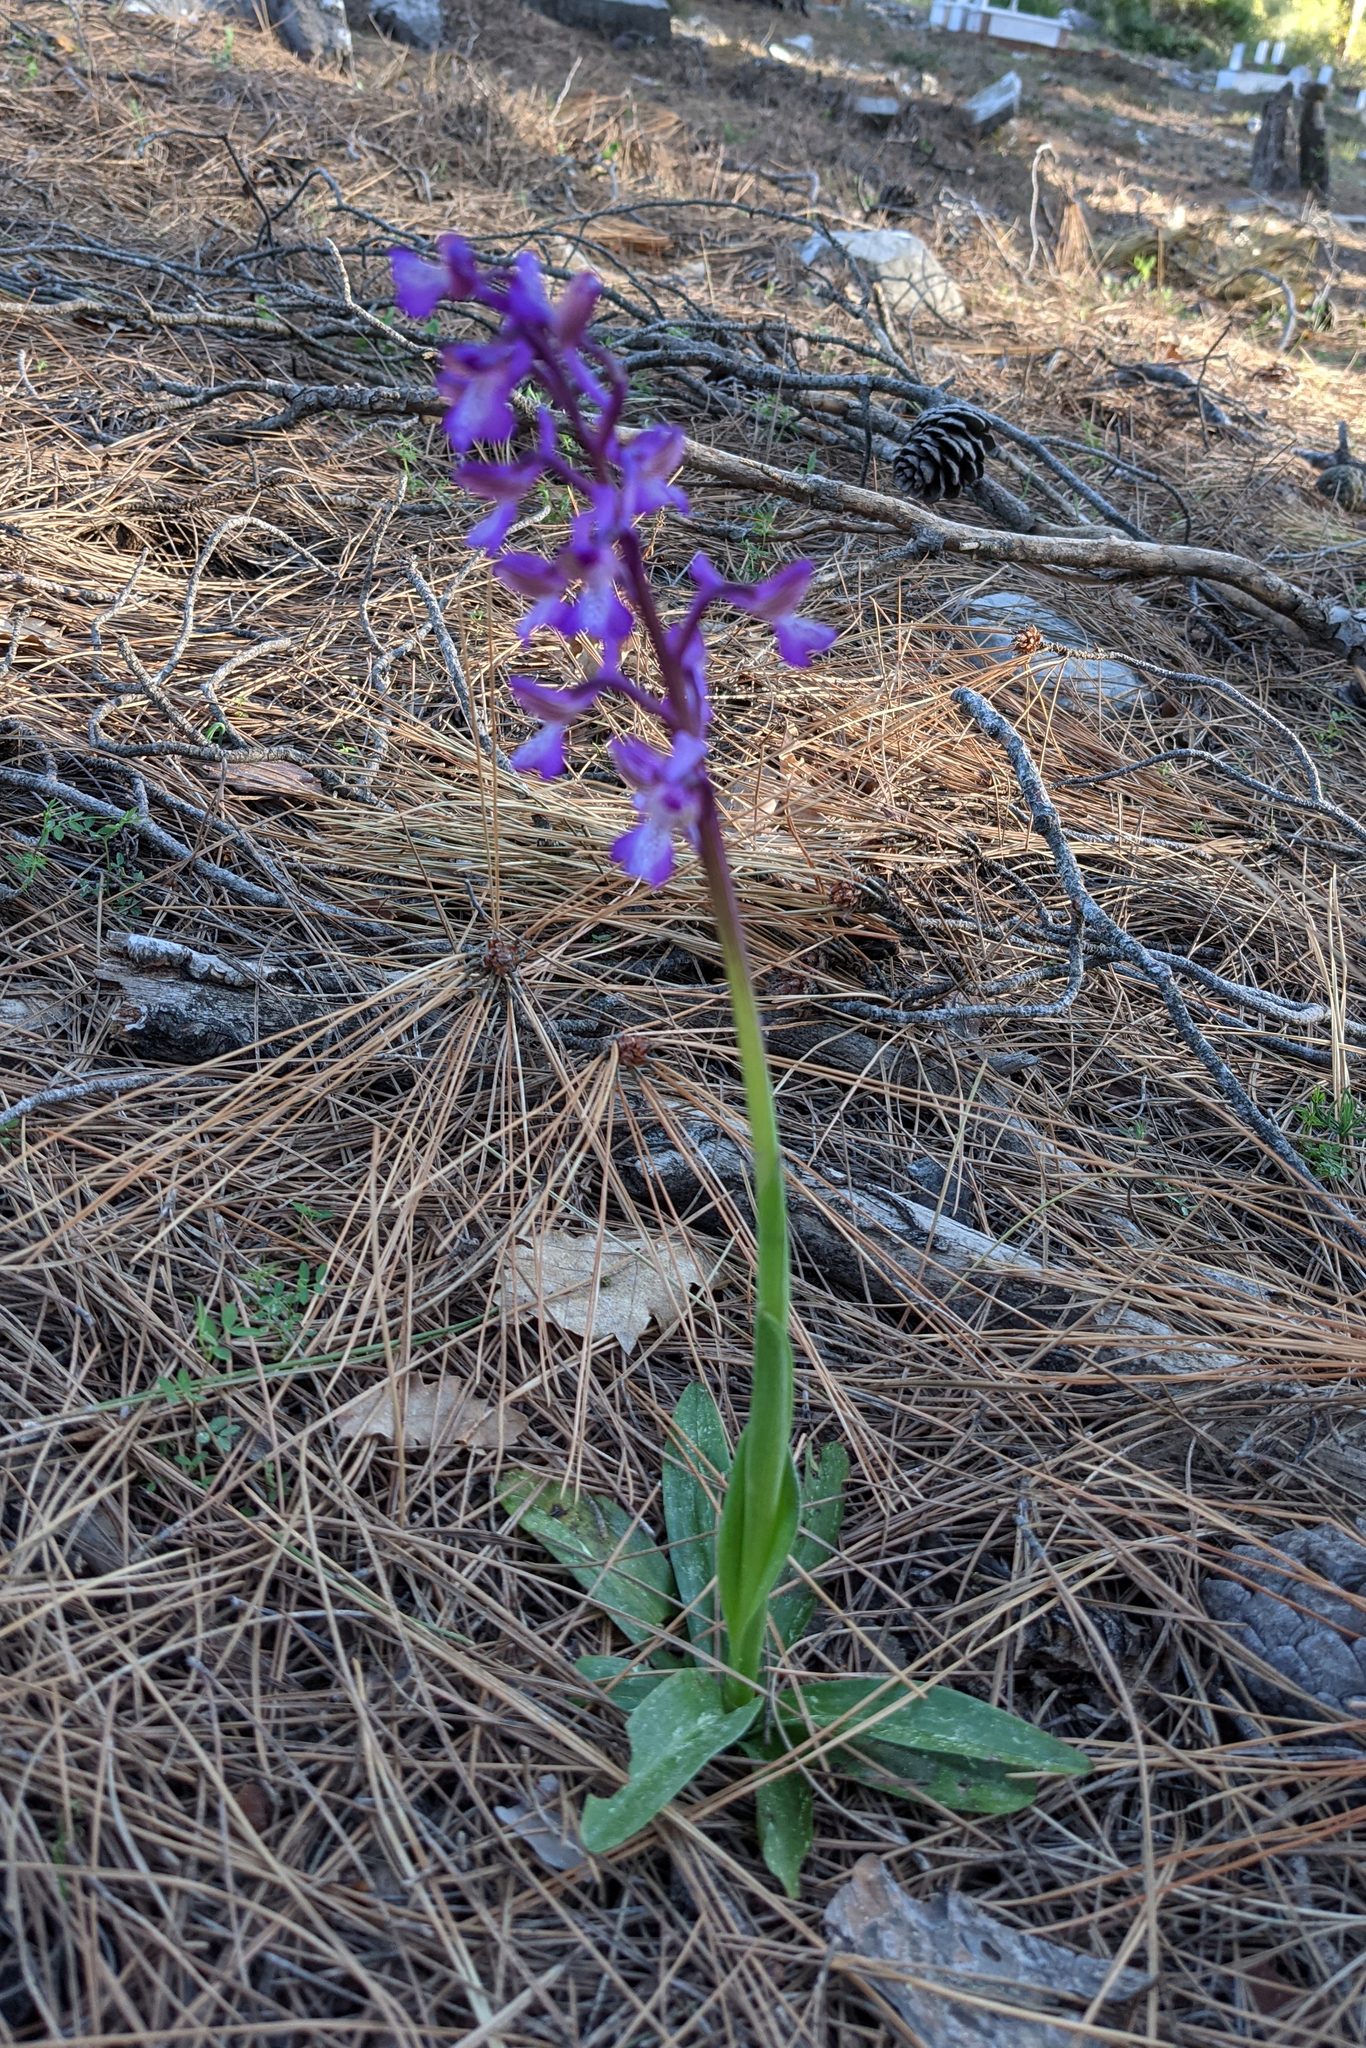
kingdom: Plantae
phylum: Tracheophyta
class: Liliopsida
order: Asparagales
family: Orchidaceae
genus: Anacamptis
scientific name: Anacamptis morio
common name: Green-winged orchid
